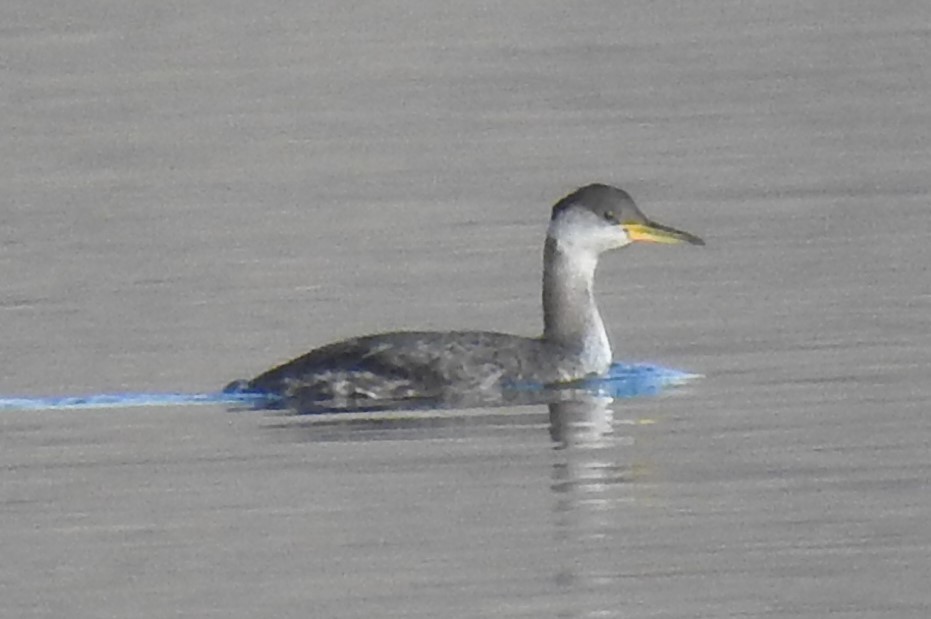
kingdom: Animalia
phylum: Chordata
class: Aves
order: Podicipediformes
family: Podicipedidae
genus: Podiceps
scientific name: Podiceps grisegena
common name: Red-necked grebe
